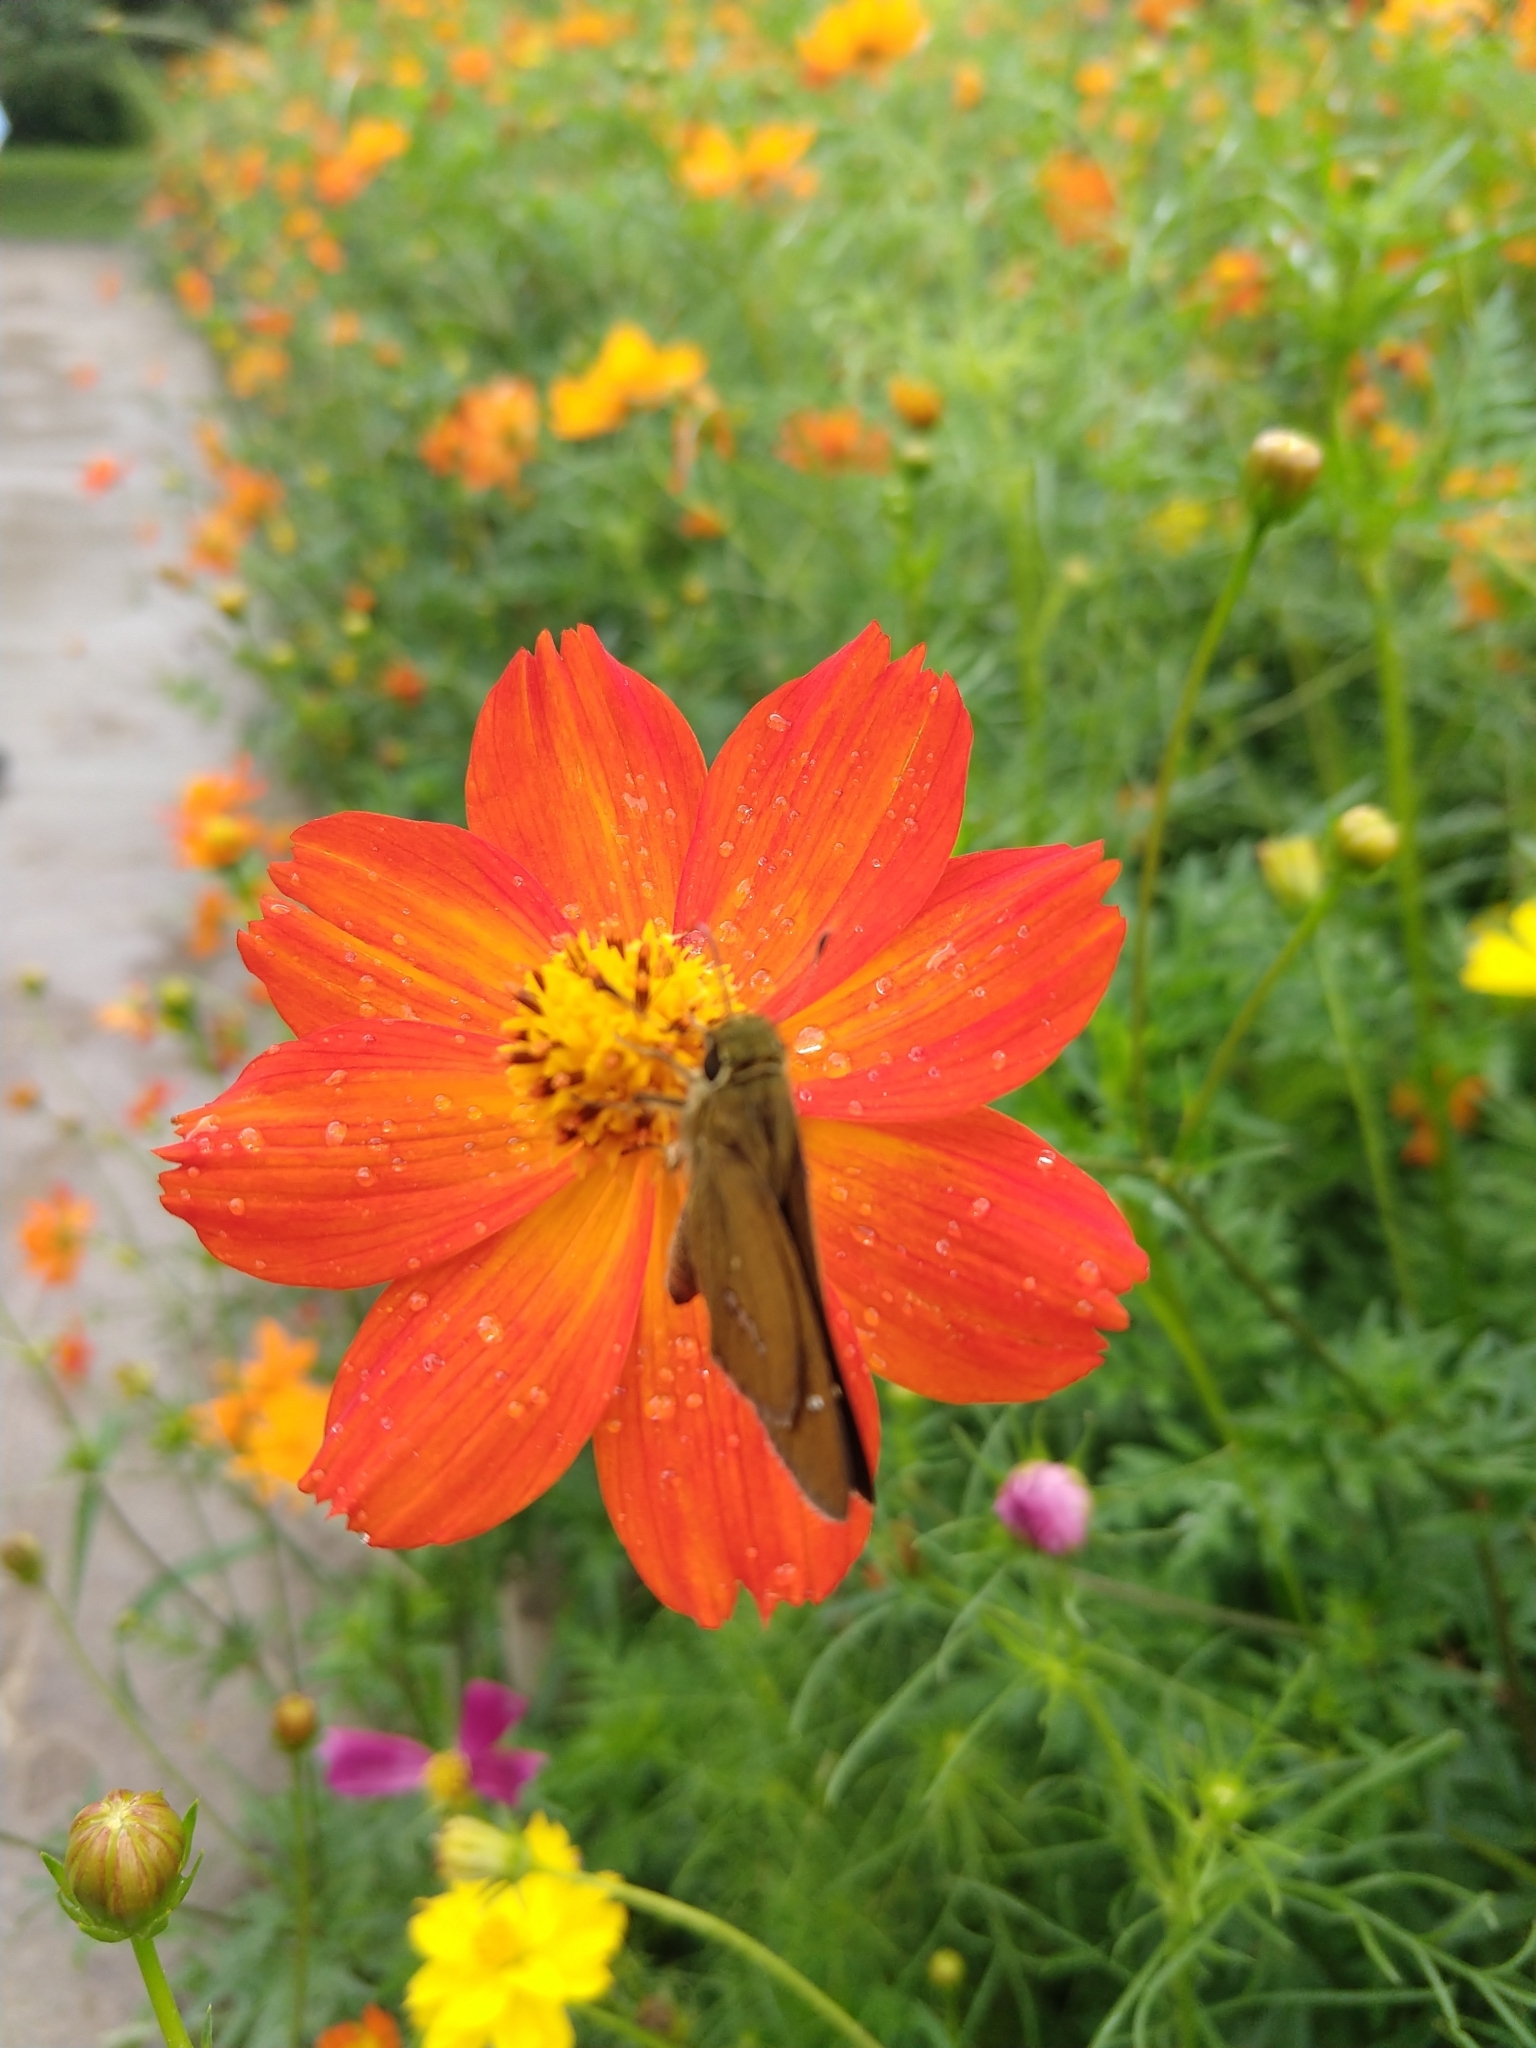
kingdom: Animalia
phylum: Arthropoda
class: Insecta
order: Lepidoptera
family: Hesperiidae
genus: Parnara
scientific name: Parnara guttatus
